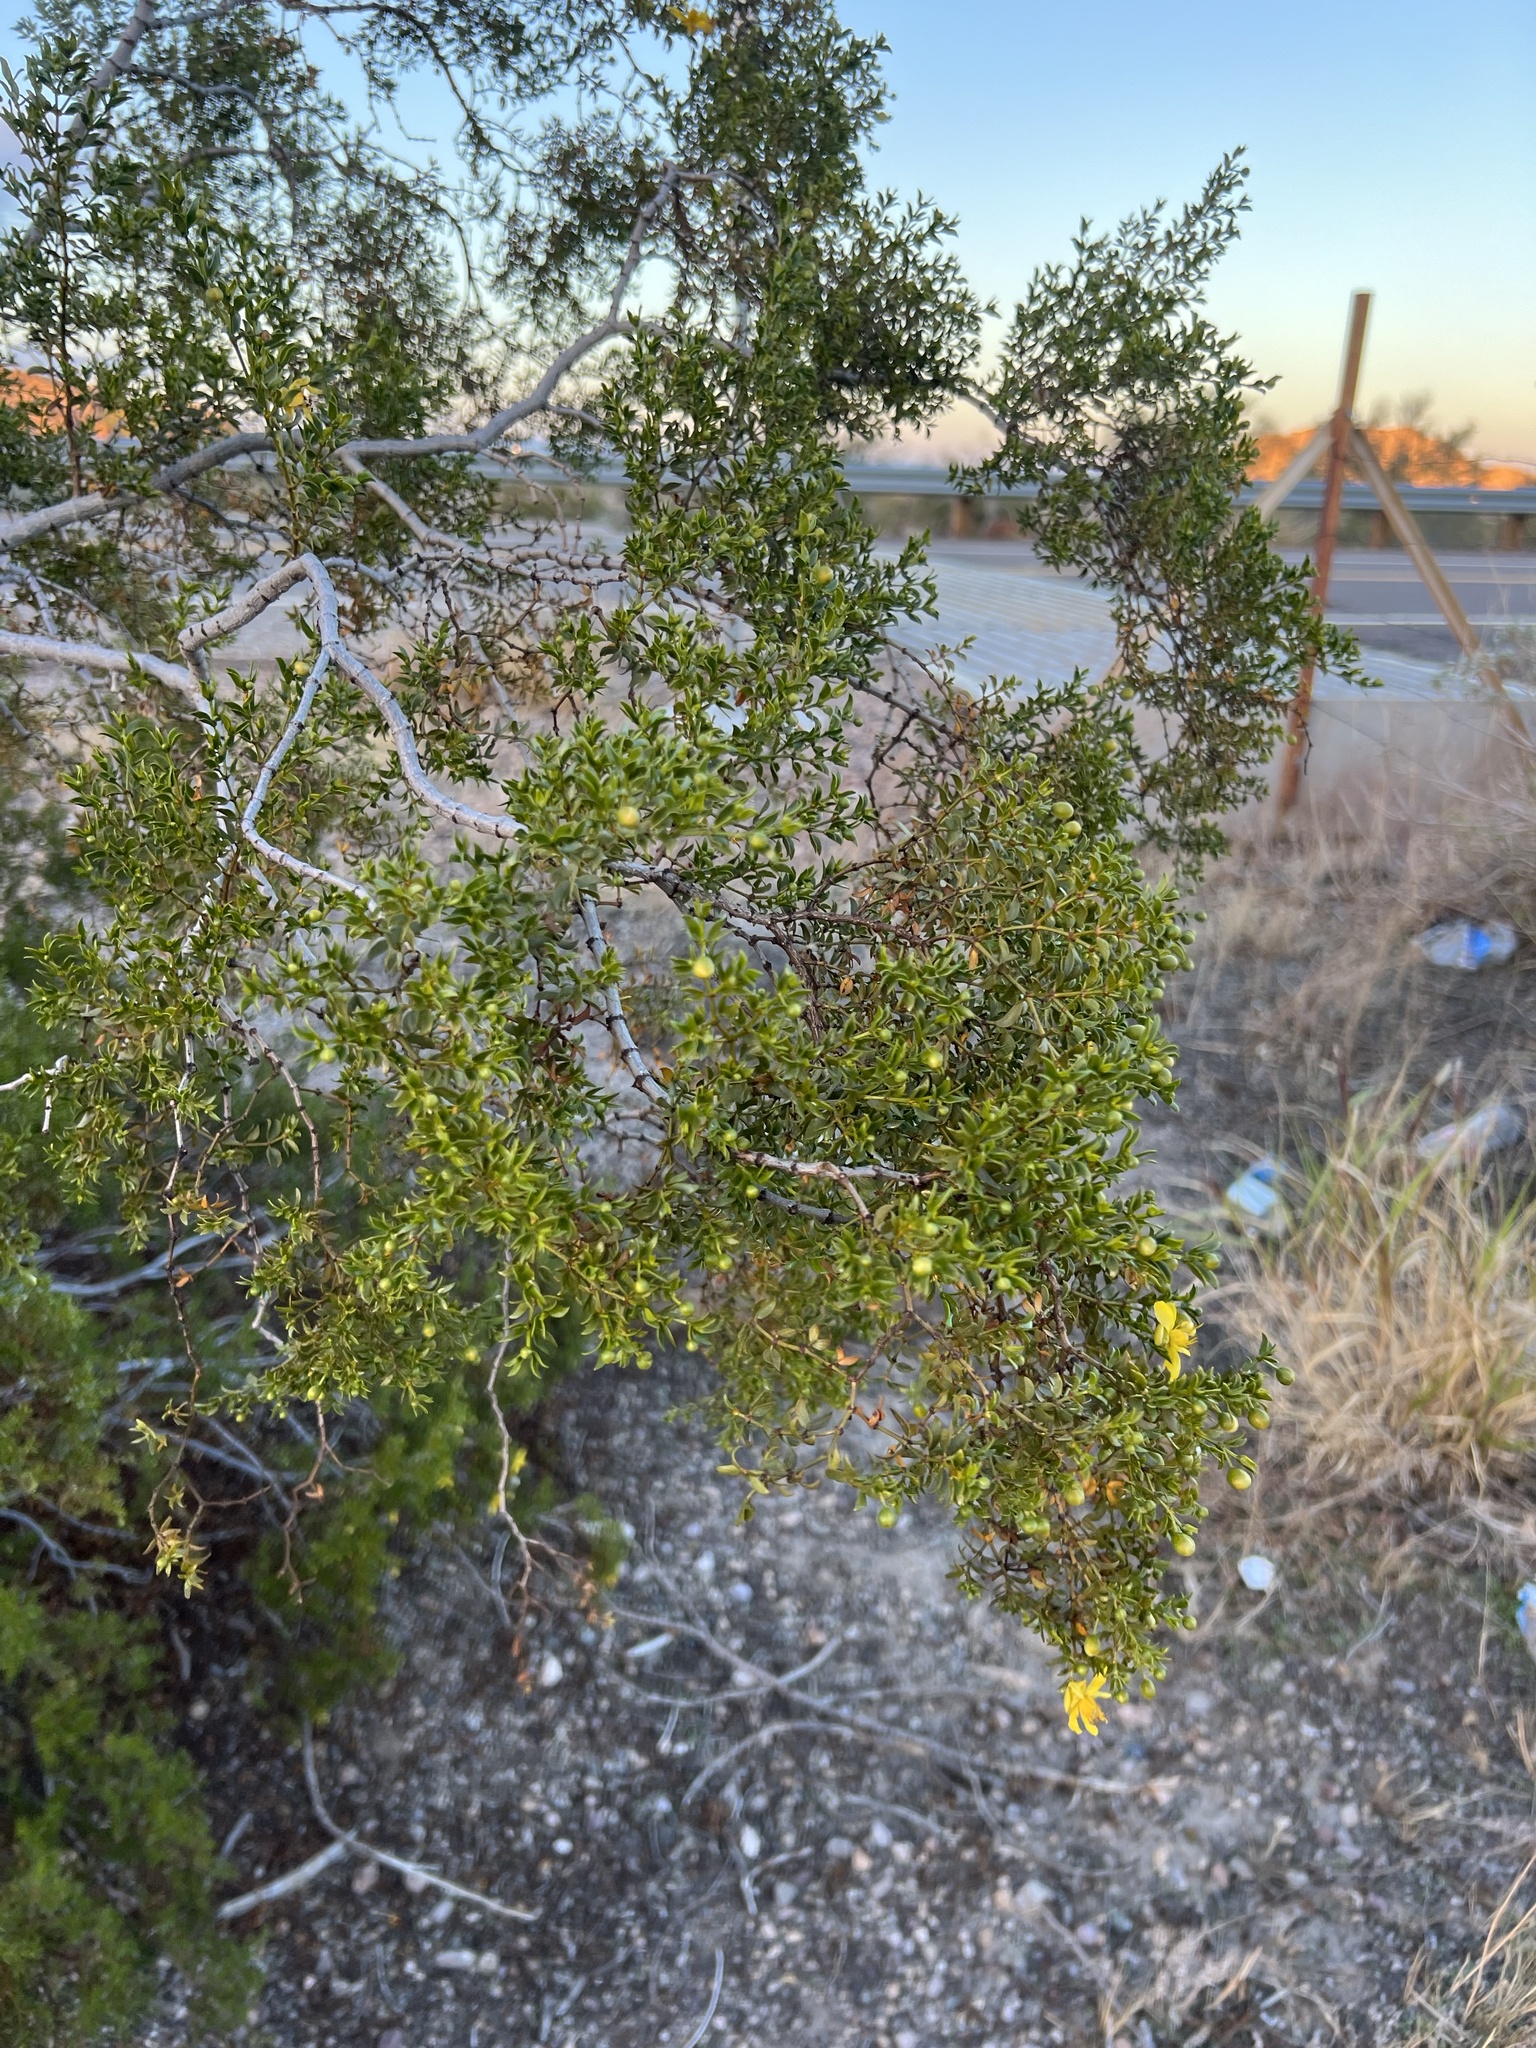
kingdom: Plantae
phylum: Tracheophyta
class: Magnoliopsida
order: Zygophyllales
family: Zygophyllaceae
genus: Larrea
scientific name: Larrea tridentata
